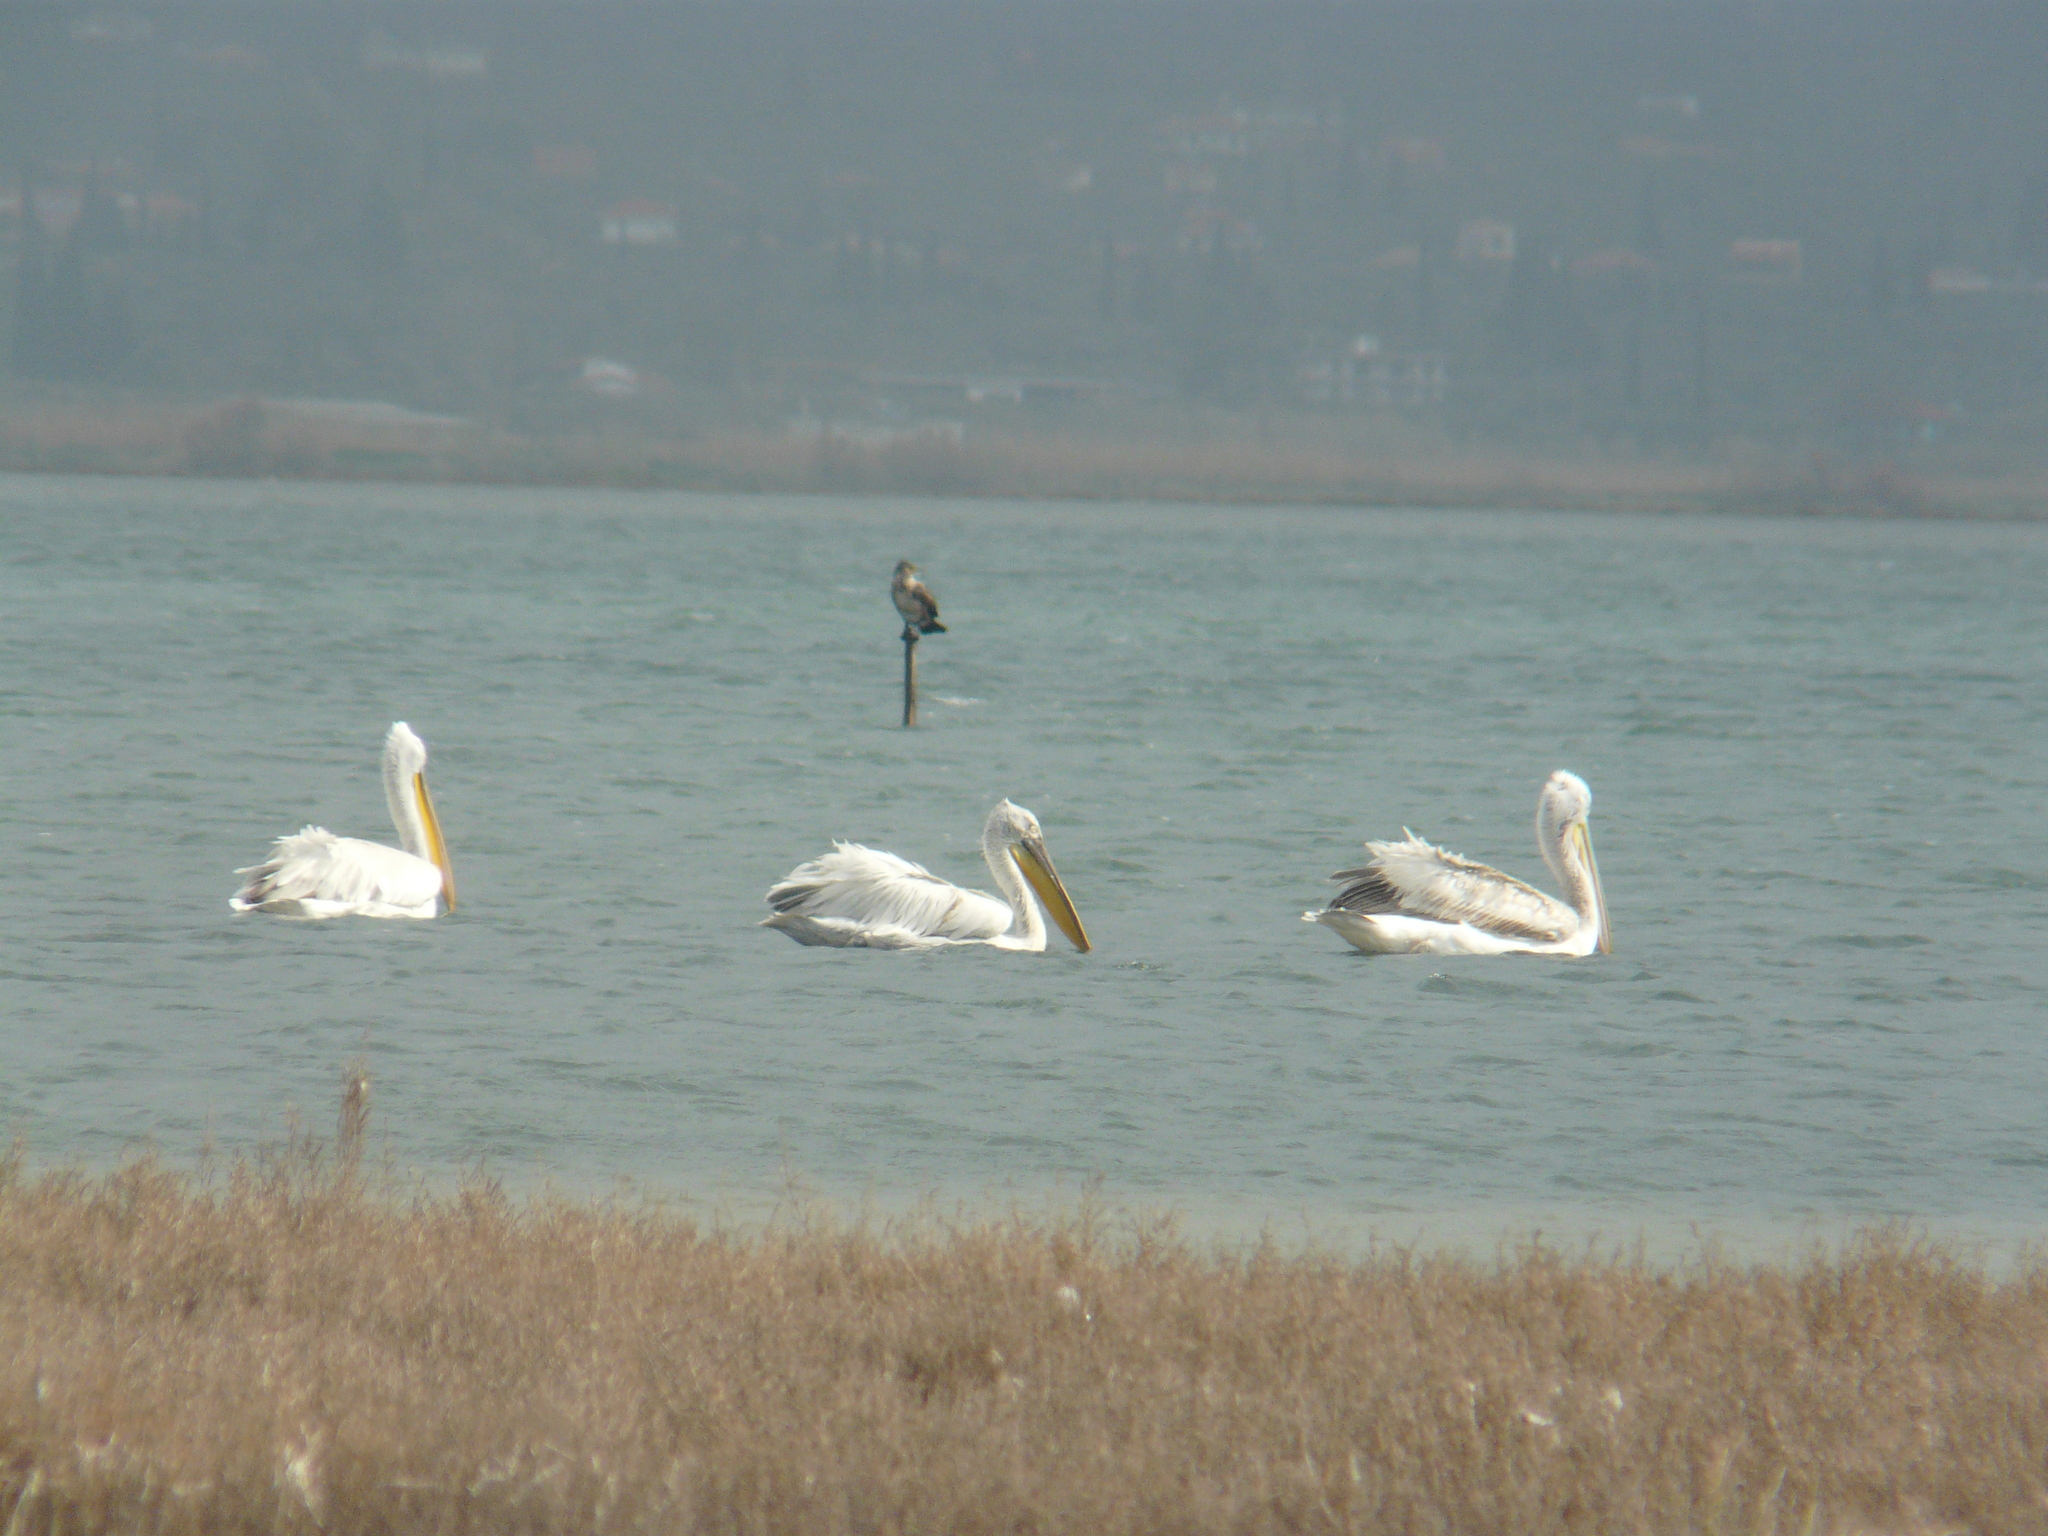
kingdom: Animalia
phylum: Chordata
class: Aves
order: Pelecaniformes
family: Pelecanidae
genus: Pelecanus
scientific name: Pelecanus crispus
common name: Dalmatian pelican
